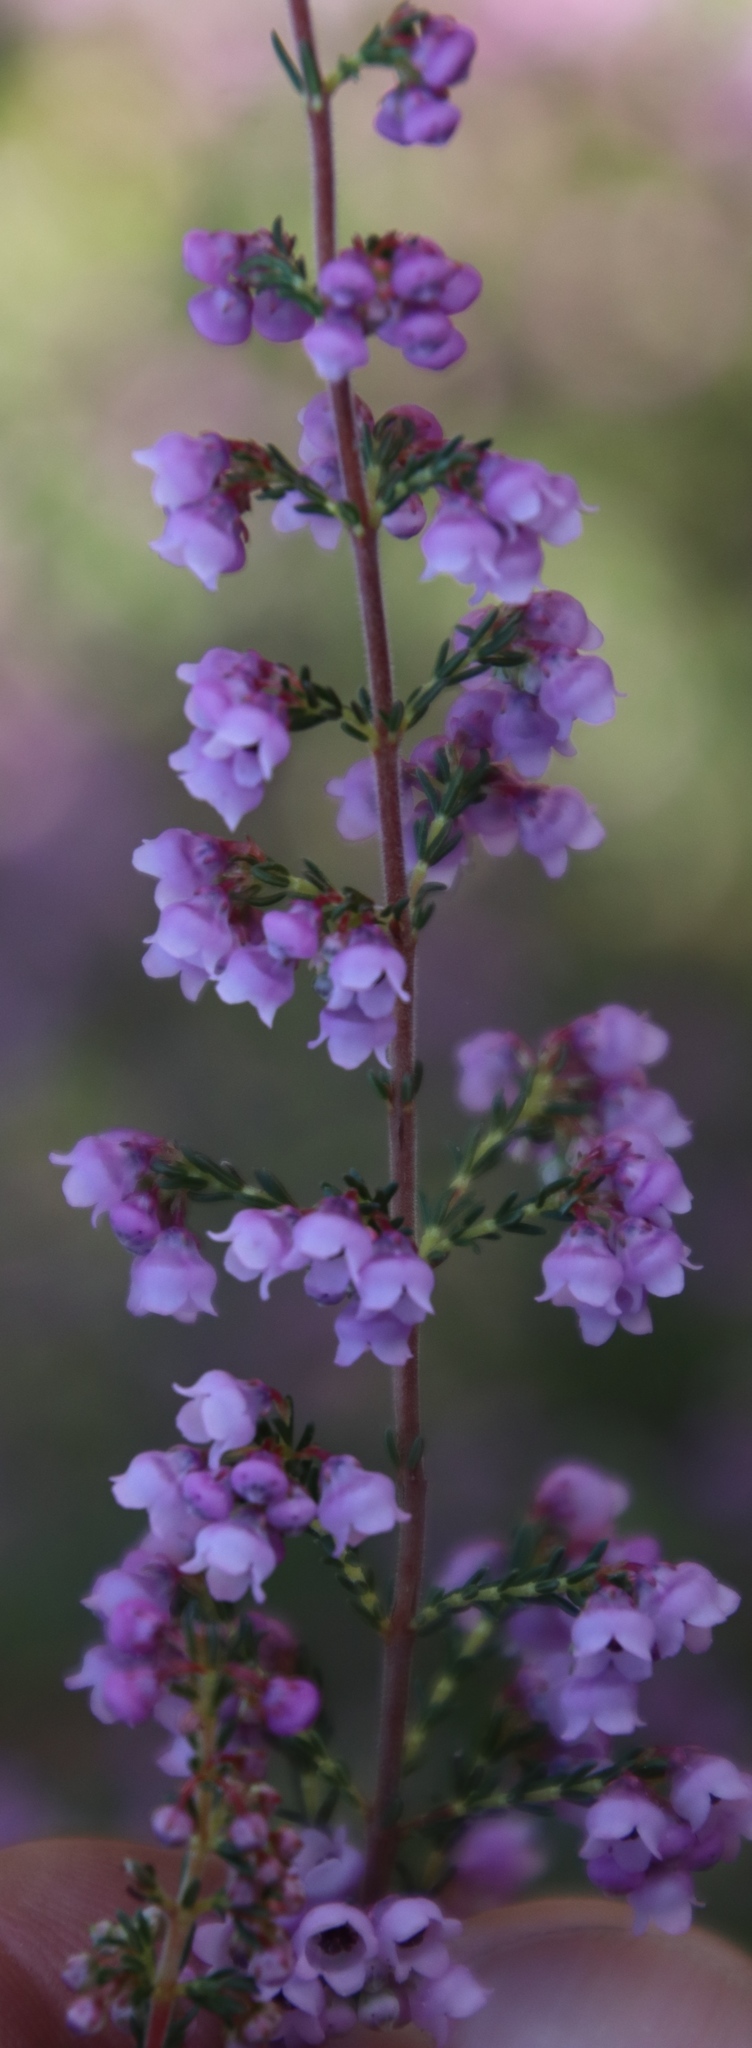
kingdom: Plantae
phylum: Tracheophyta
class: Magnoliopsida
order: Ericales
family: Ericaceae
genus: Erica
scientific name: Erica mauritanica
